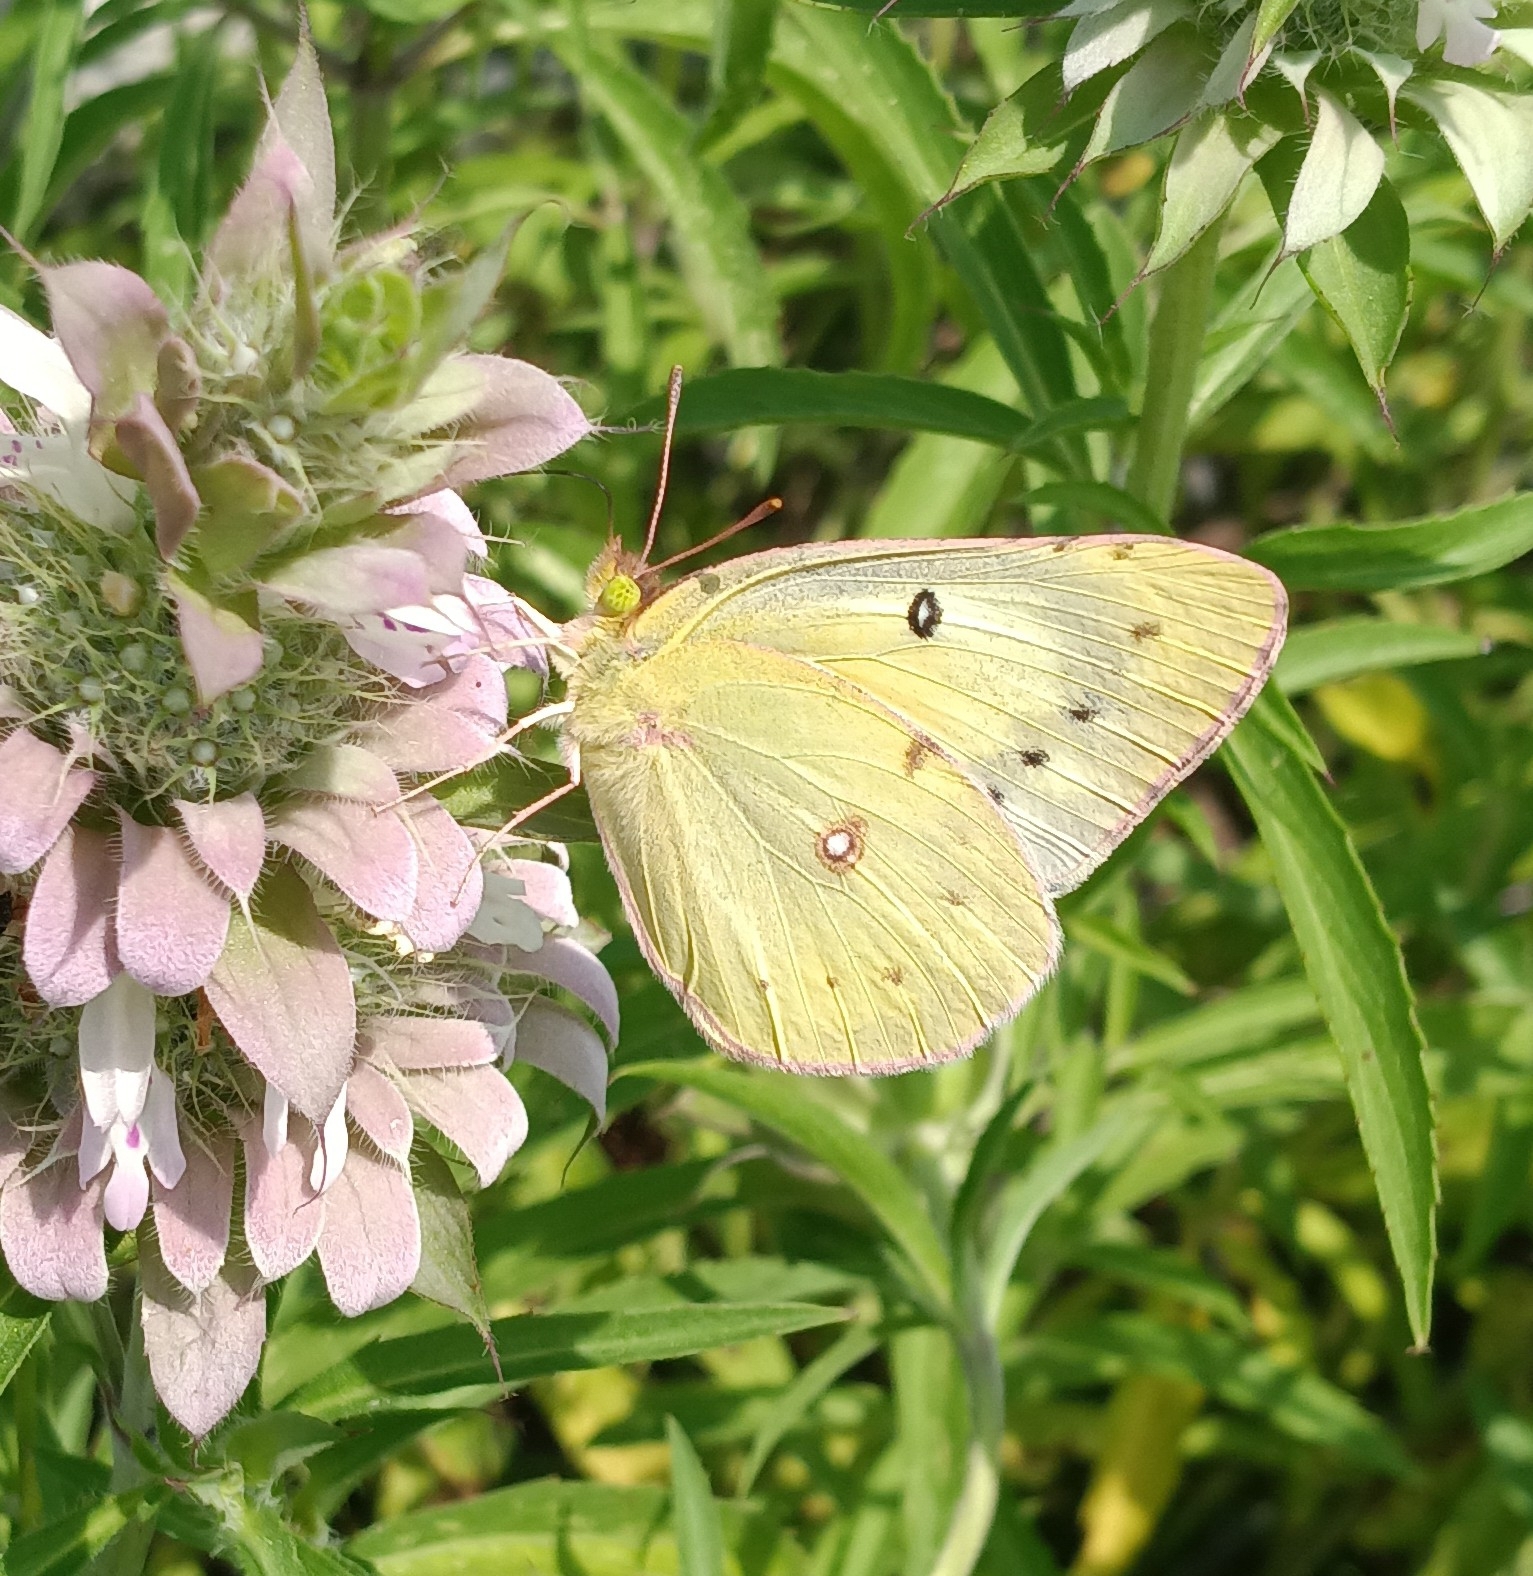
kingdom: Animalia
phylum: Arthropoda
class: Insecta
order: Lepidoptera
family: Pieridae
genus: Colias
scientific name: Colias eurytheme
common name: Alfalfa butterfly
